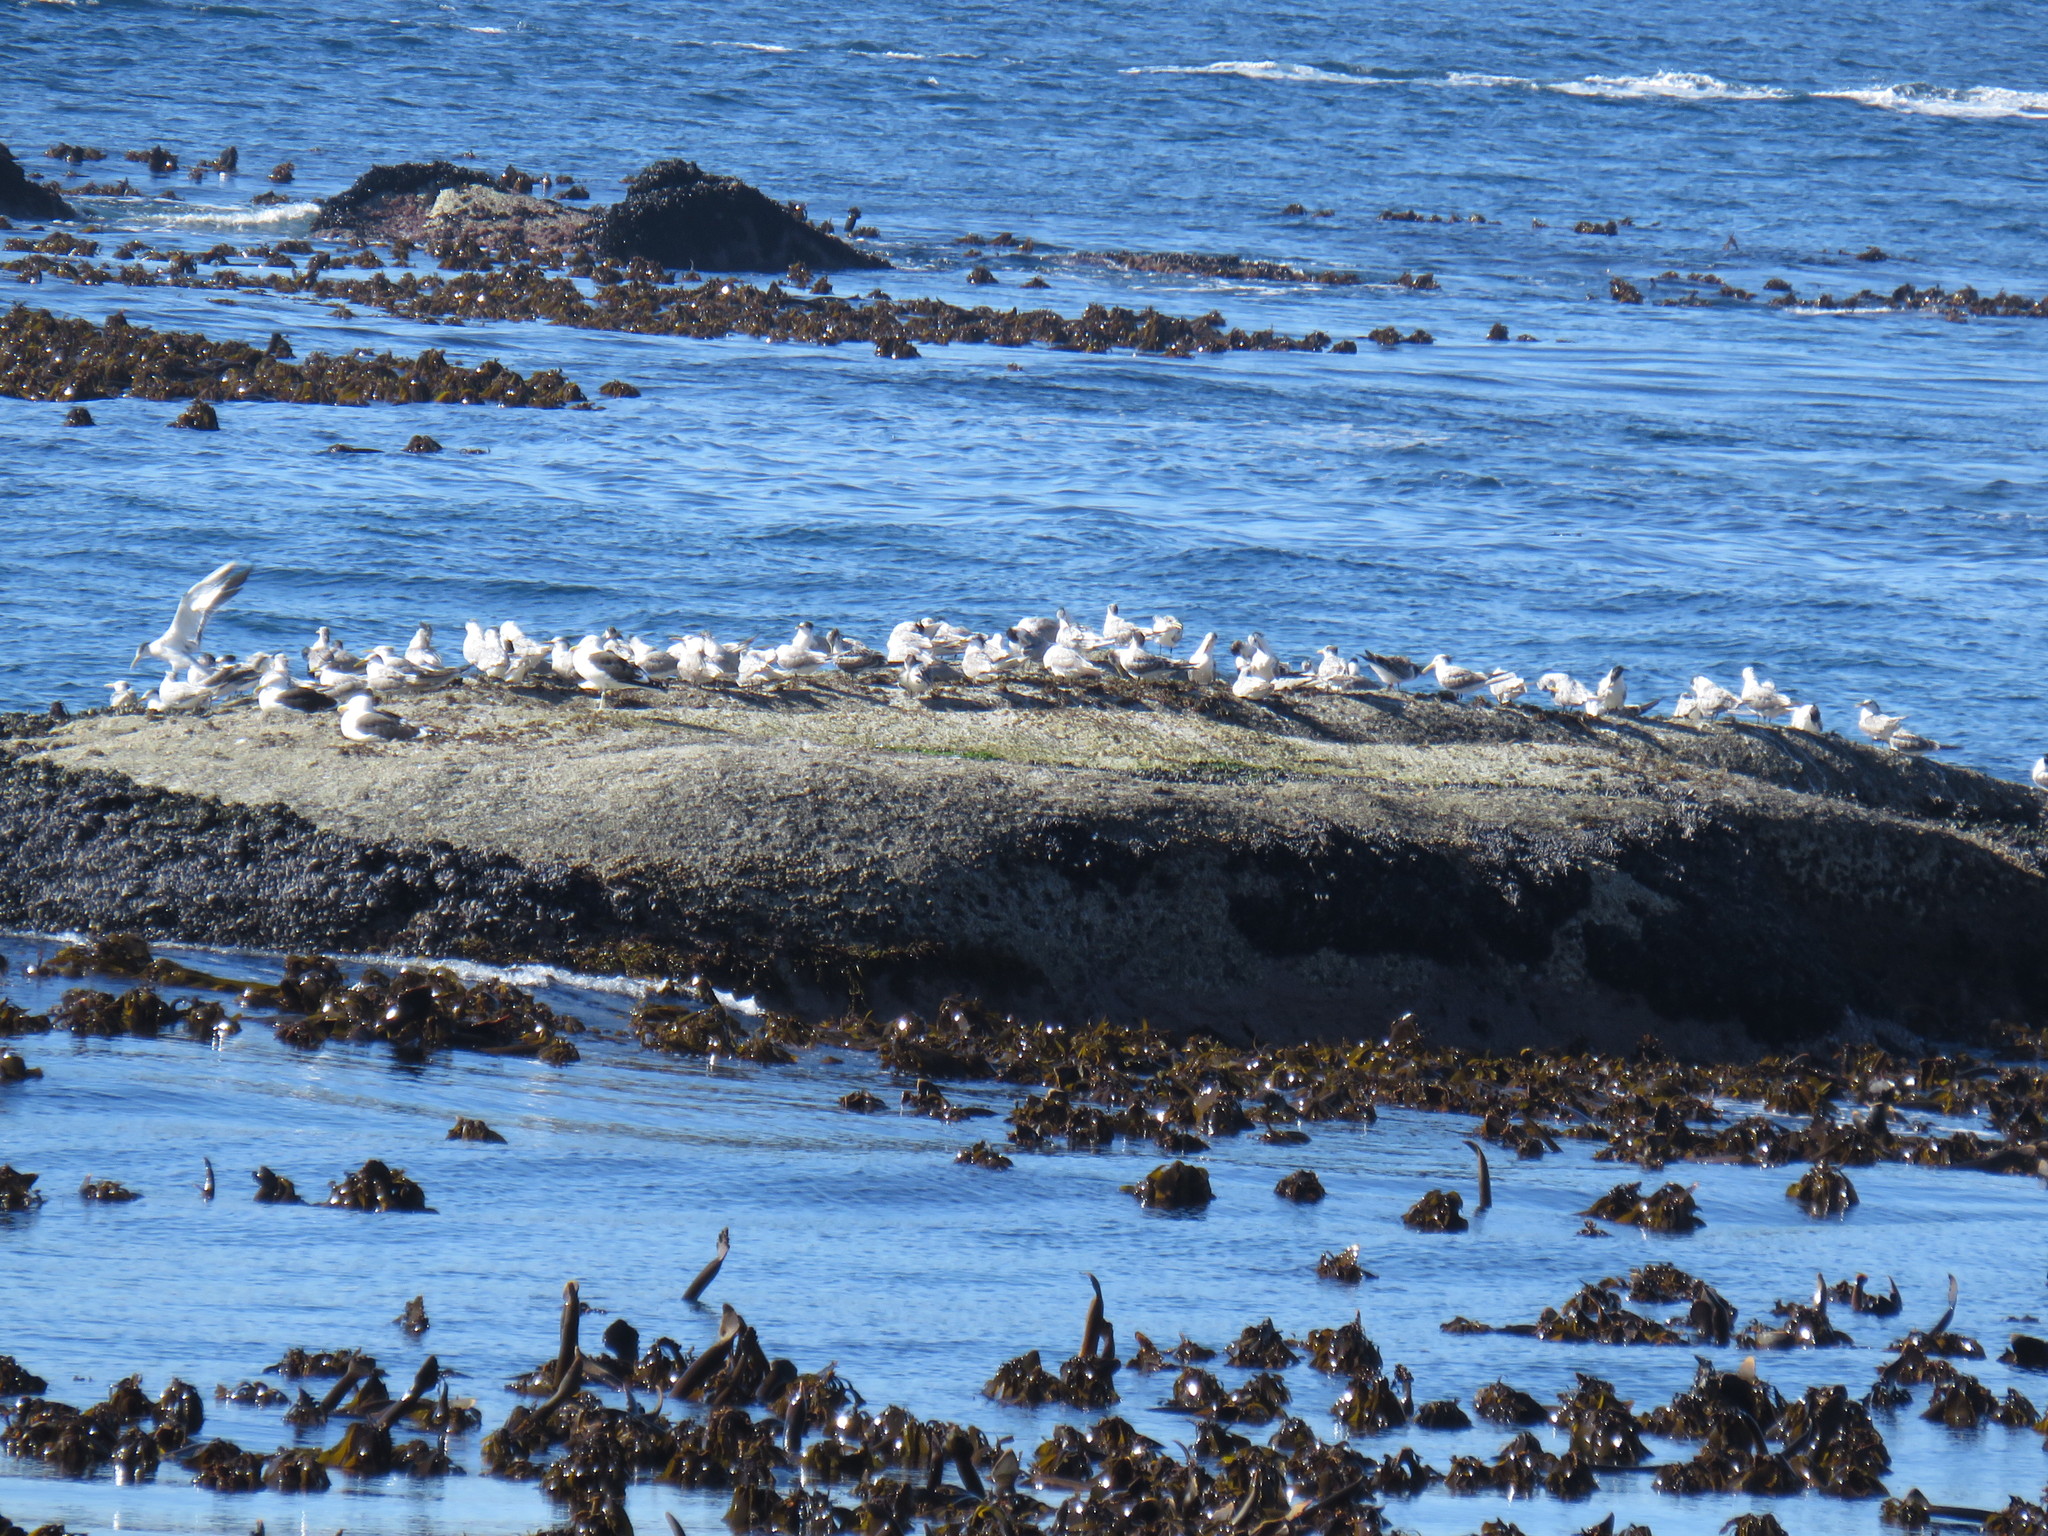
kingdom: Animalia
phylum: Chordata
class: Aves
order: Charadriiformes
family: Laridae
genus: Larus
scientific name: Larus dominicanus
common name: Kelp gull
